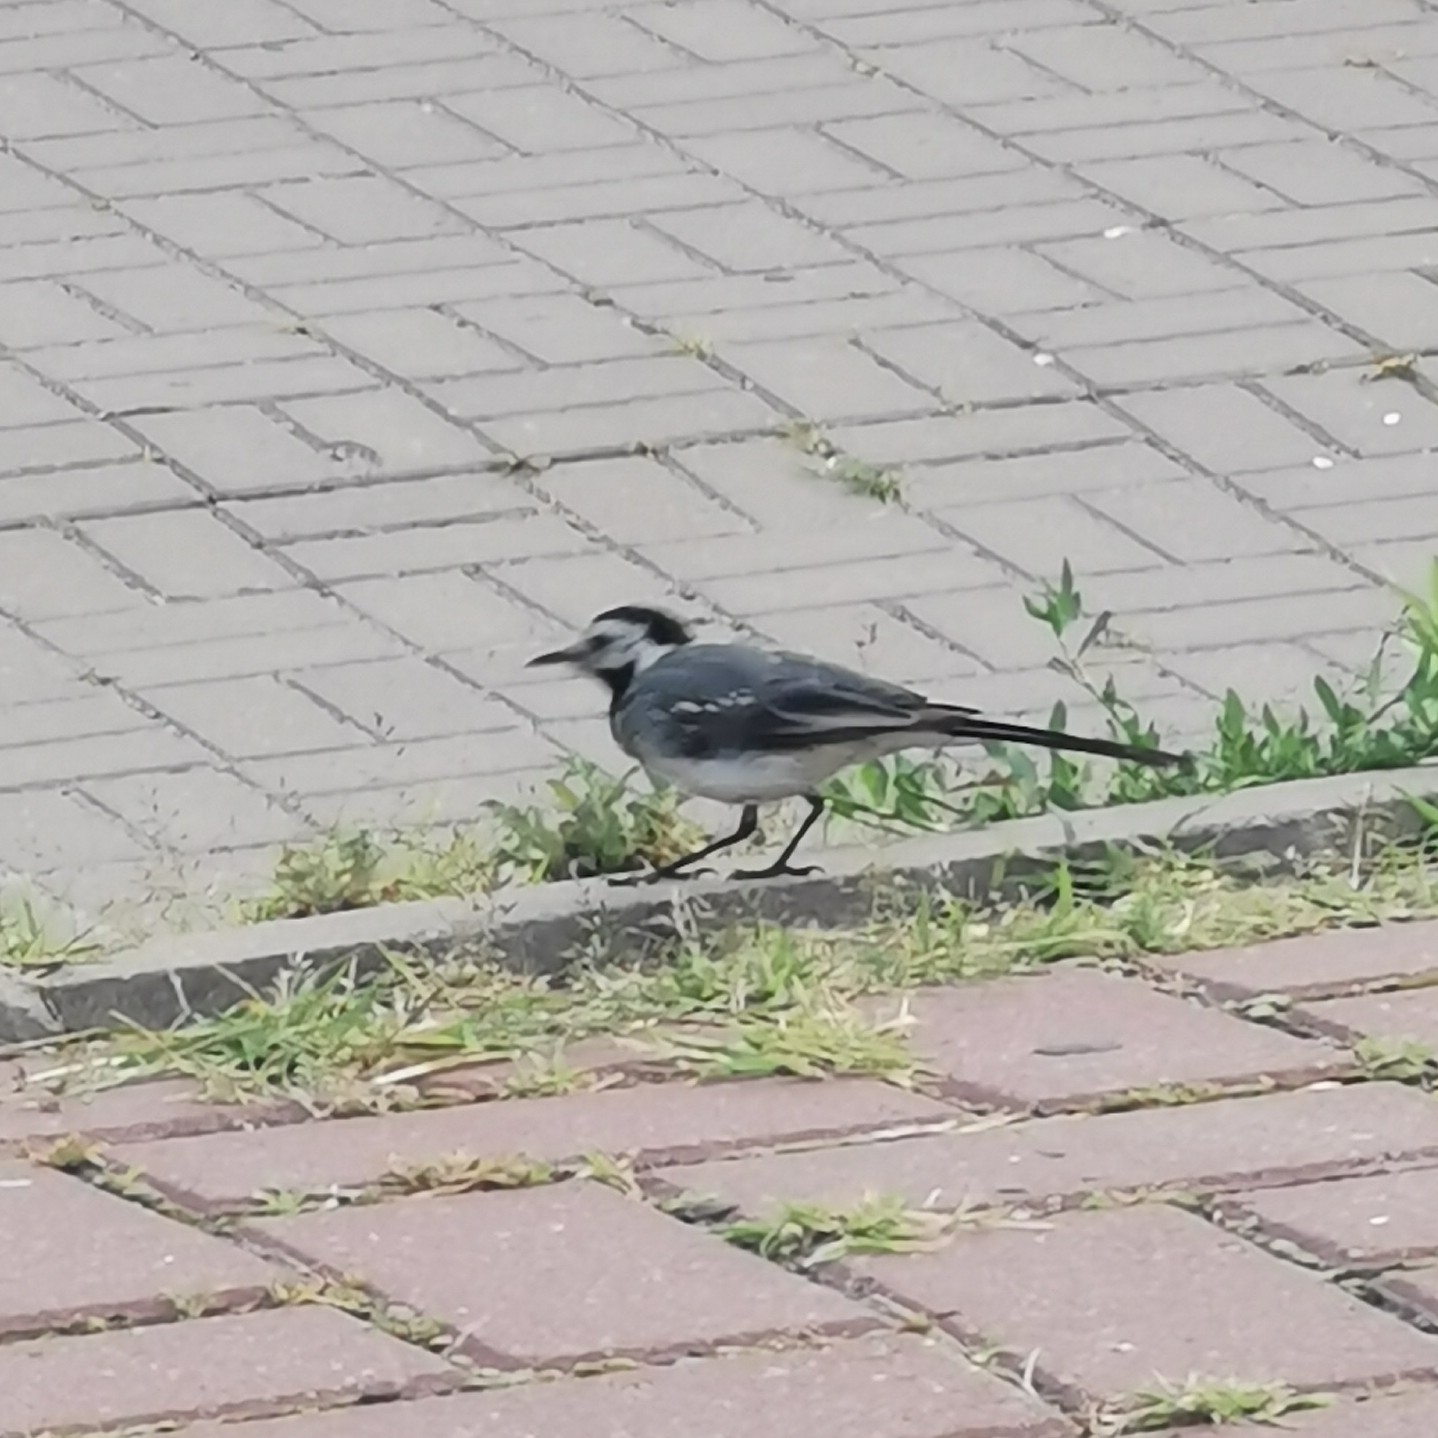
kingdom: Animalia
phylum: Chordata
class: Aves
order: Passeriformes
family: Motacillidae
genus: Motacilla
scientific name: Motacilla alba
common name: White wagtail
